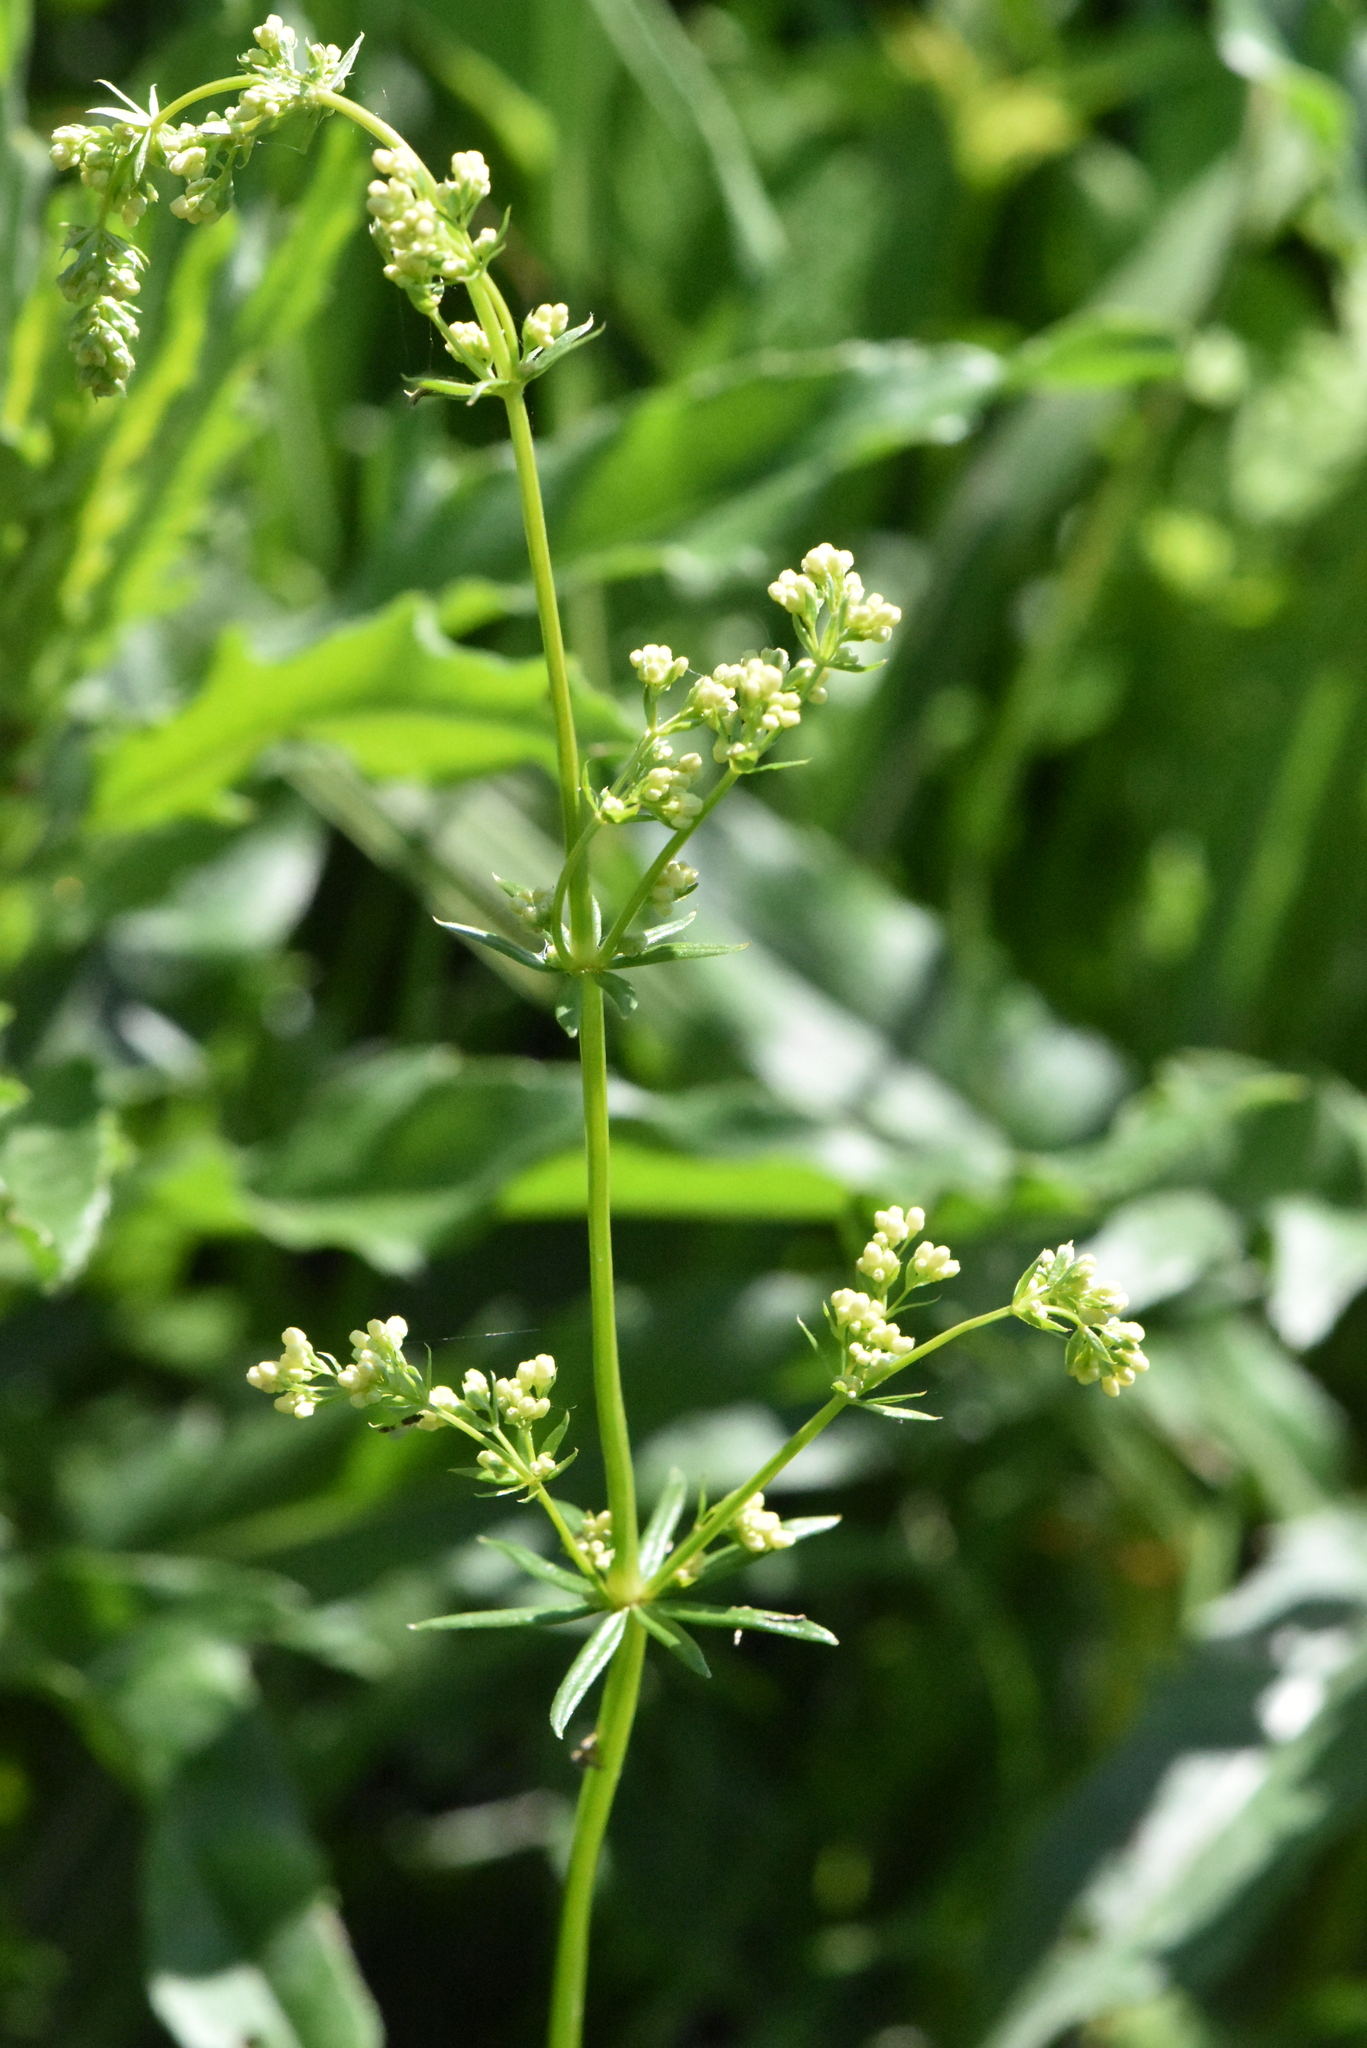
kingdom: Plantae
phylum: Tracheophyta
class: Magnoliopsida
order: Gentianales
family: Rubiaceae
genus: Galium
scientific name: Galium mollugo
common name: Hedge bedstraw
